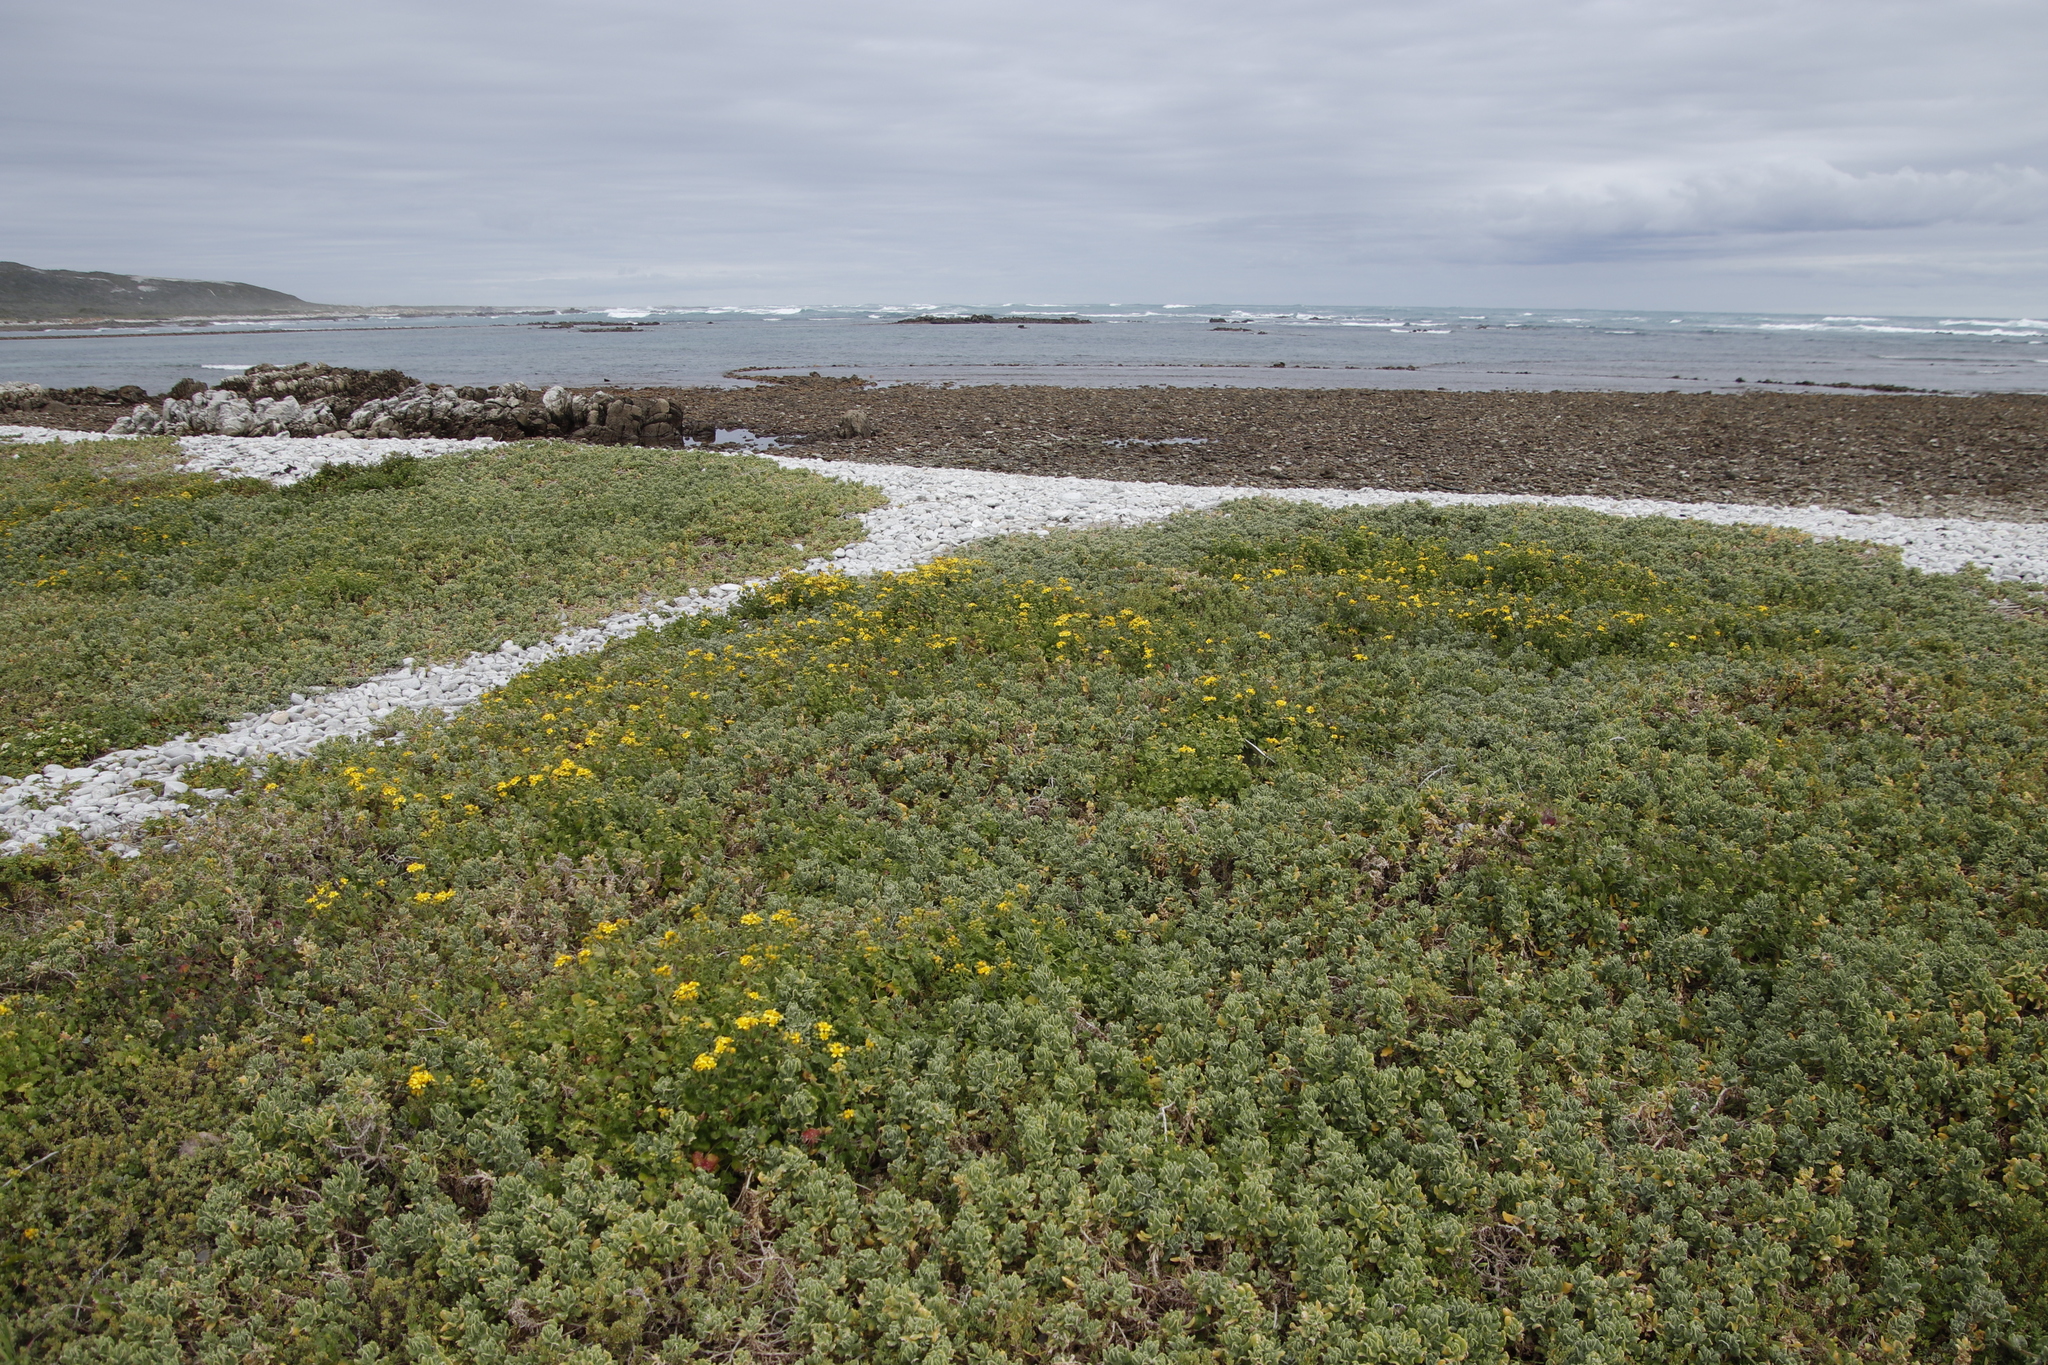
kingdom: Plantae
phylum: Tracheophyta
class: Magnoliopsida
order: Asterales
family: Asteraceae
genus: Cineraria
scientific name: Cineraria geifolia
